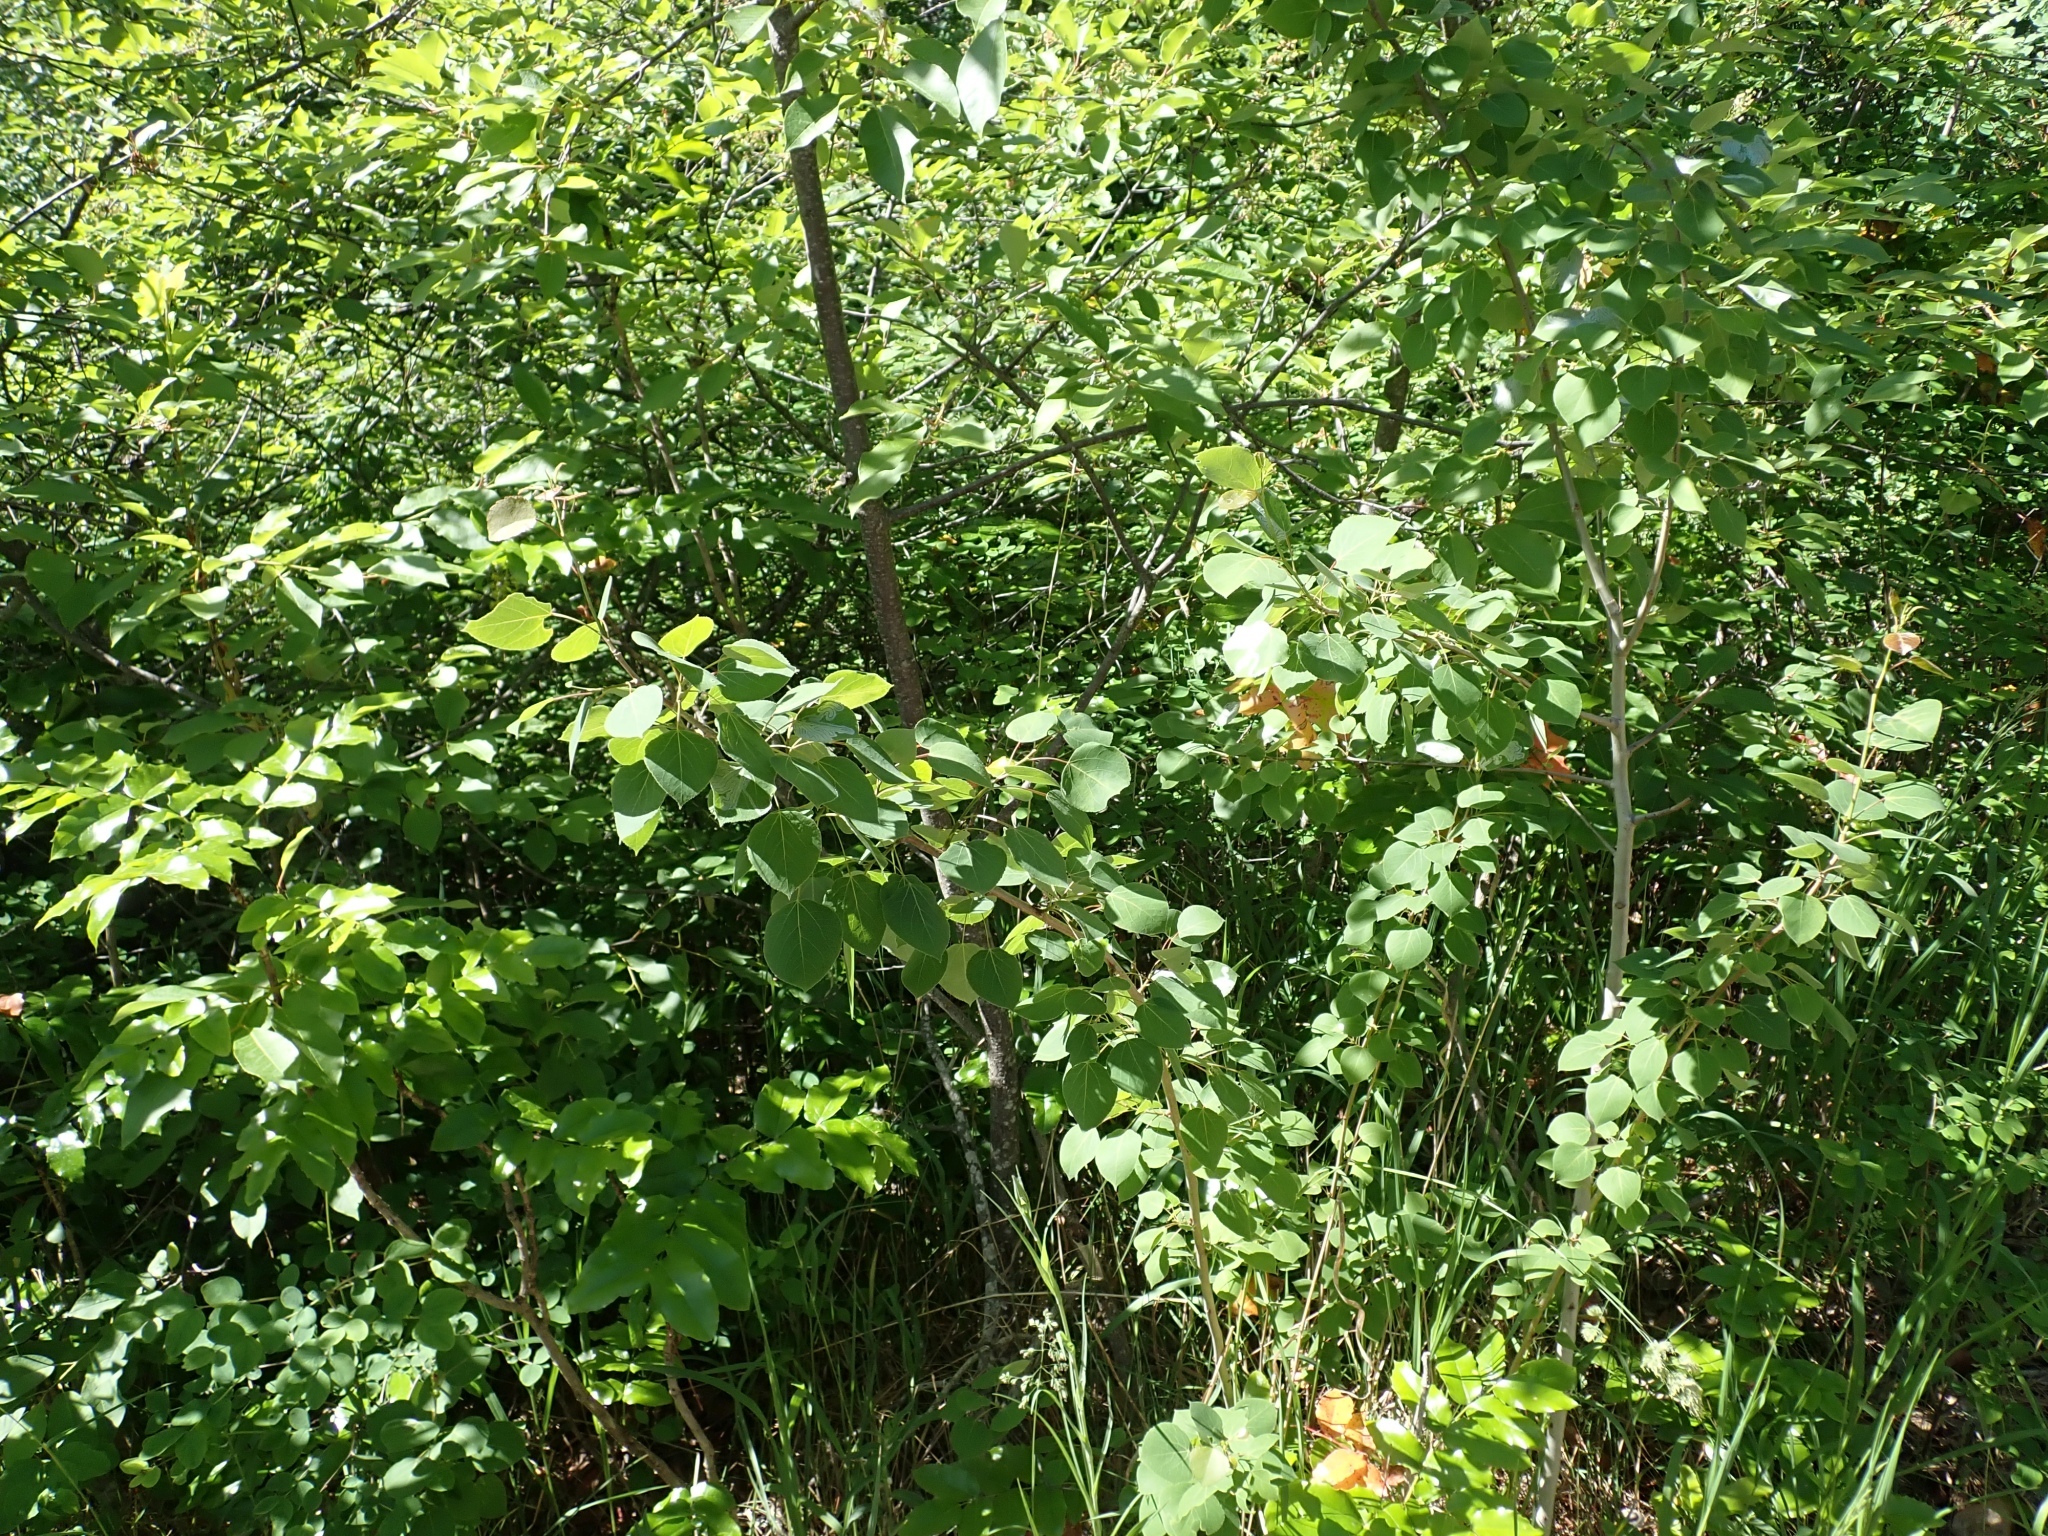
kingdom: Plantae
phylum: Tracheophyta
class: Magnoliopsida
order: Malpighiales
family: Salicaceae
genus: Populus
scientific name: Populus tremuloides
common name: Quaking aspen
